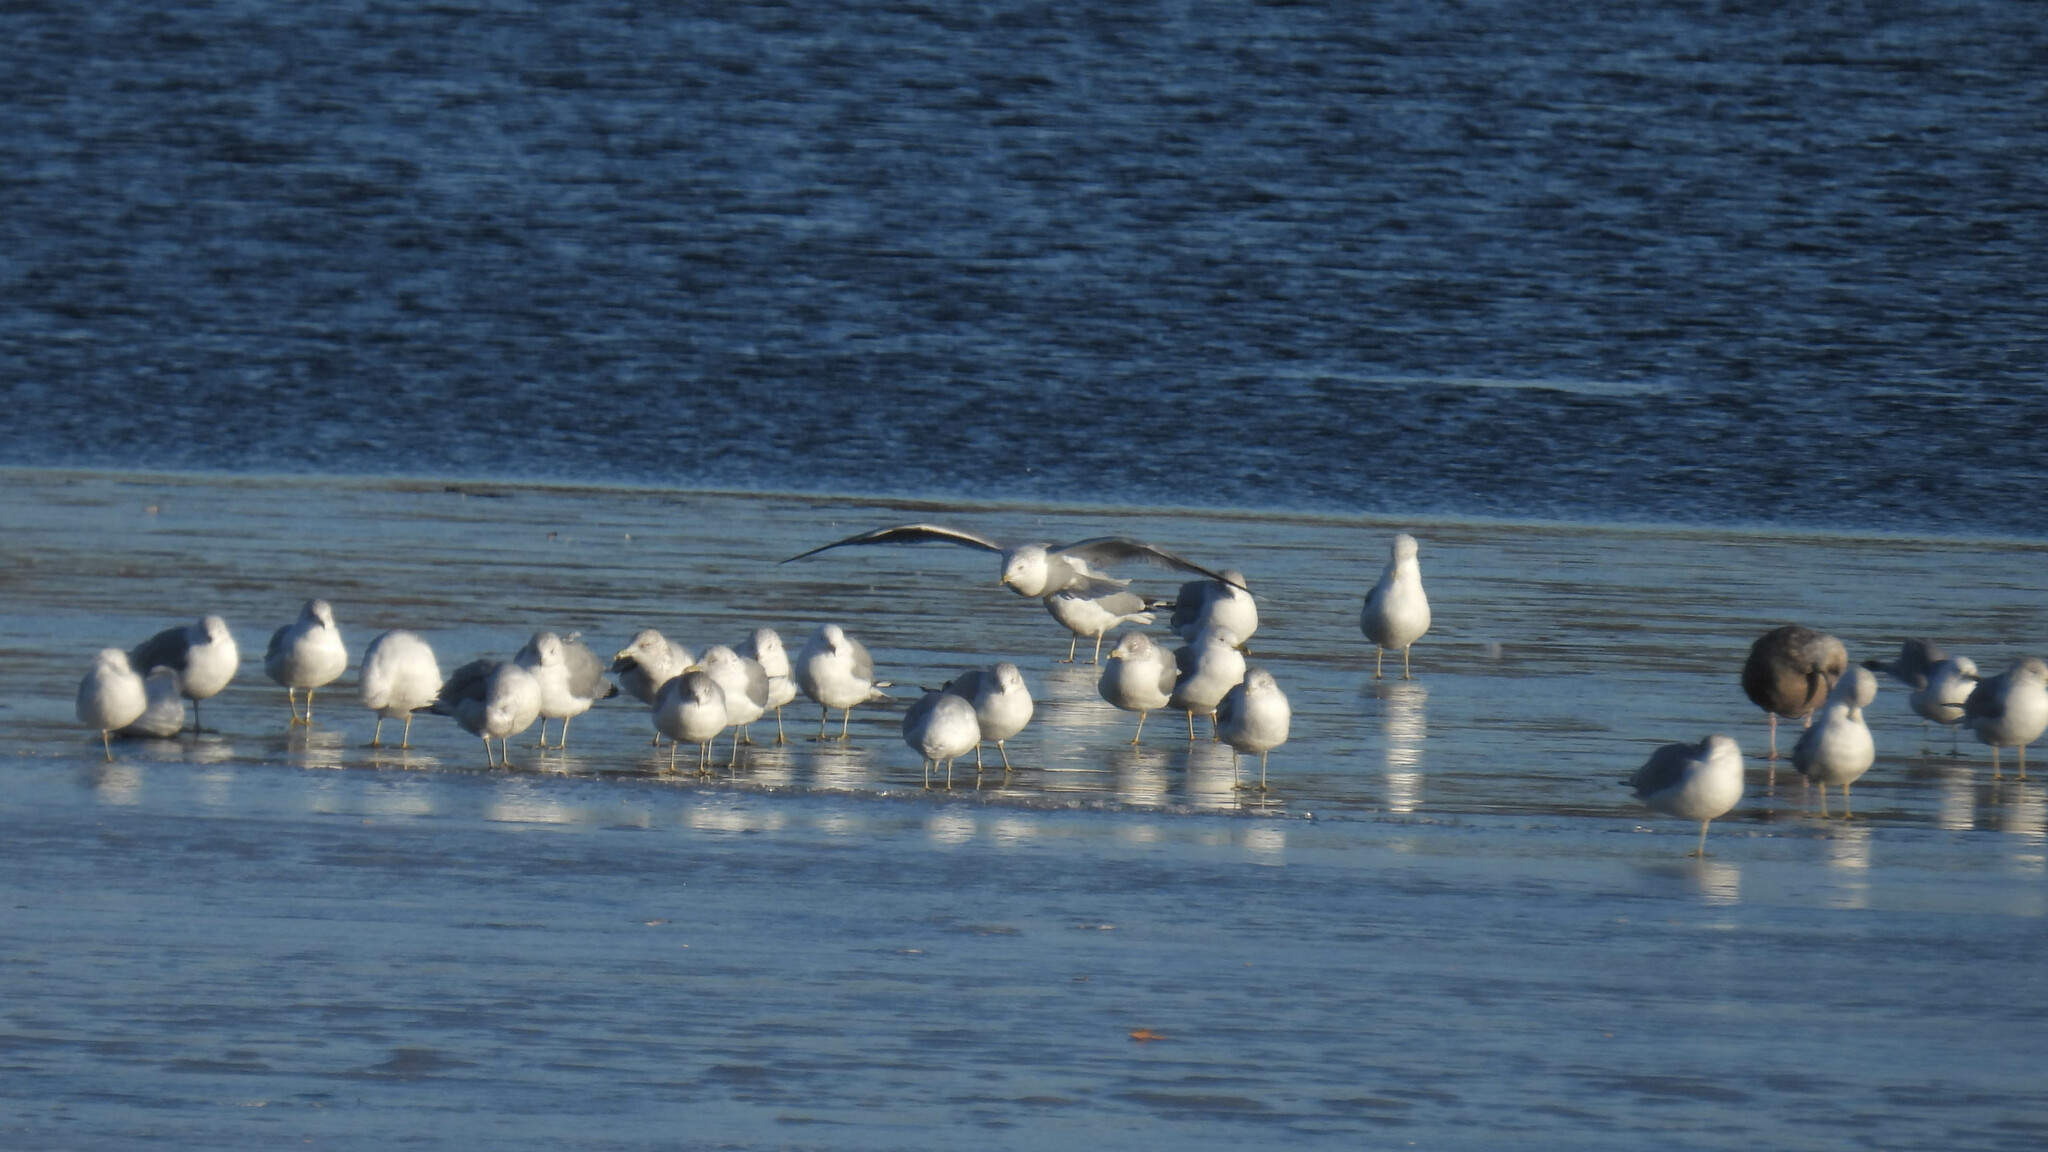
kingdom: Animalia
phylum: Chordata
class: Aves
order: Charadriiformes
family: Laridae
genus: Larus
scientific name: Larus delawarensis
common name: Ring-billed gull
